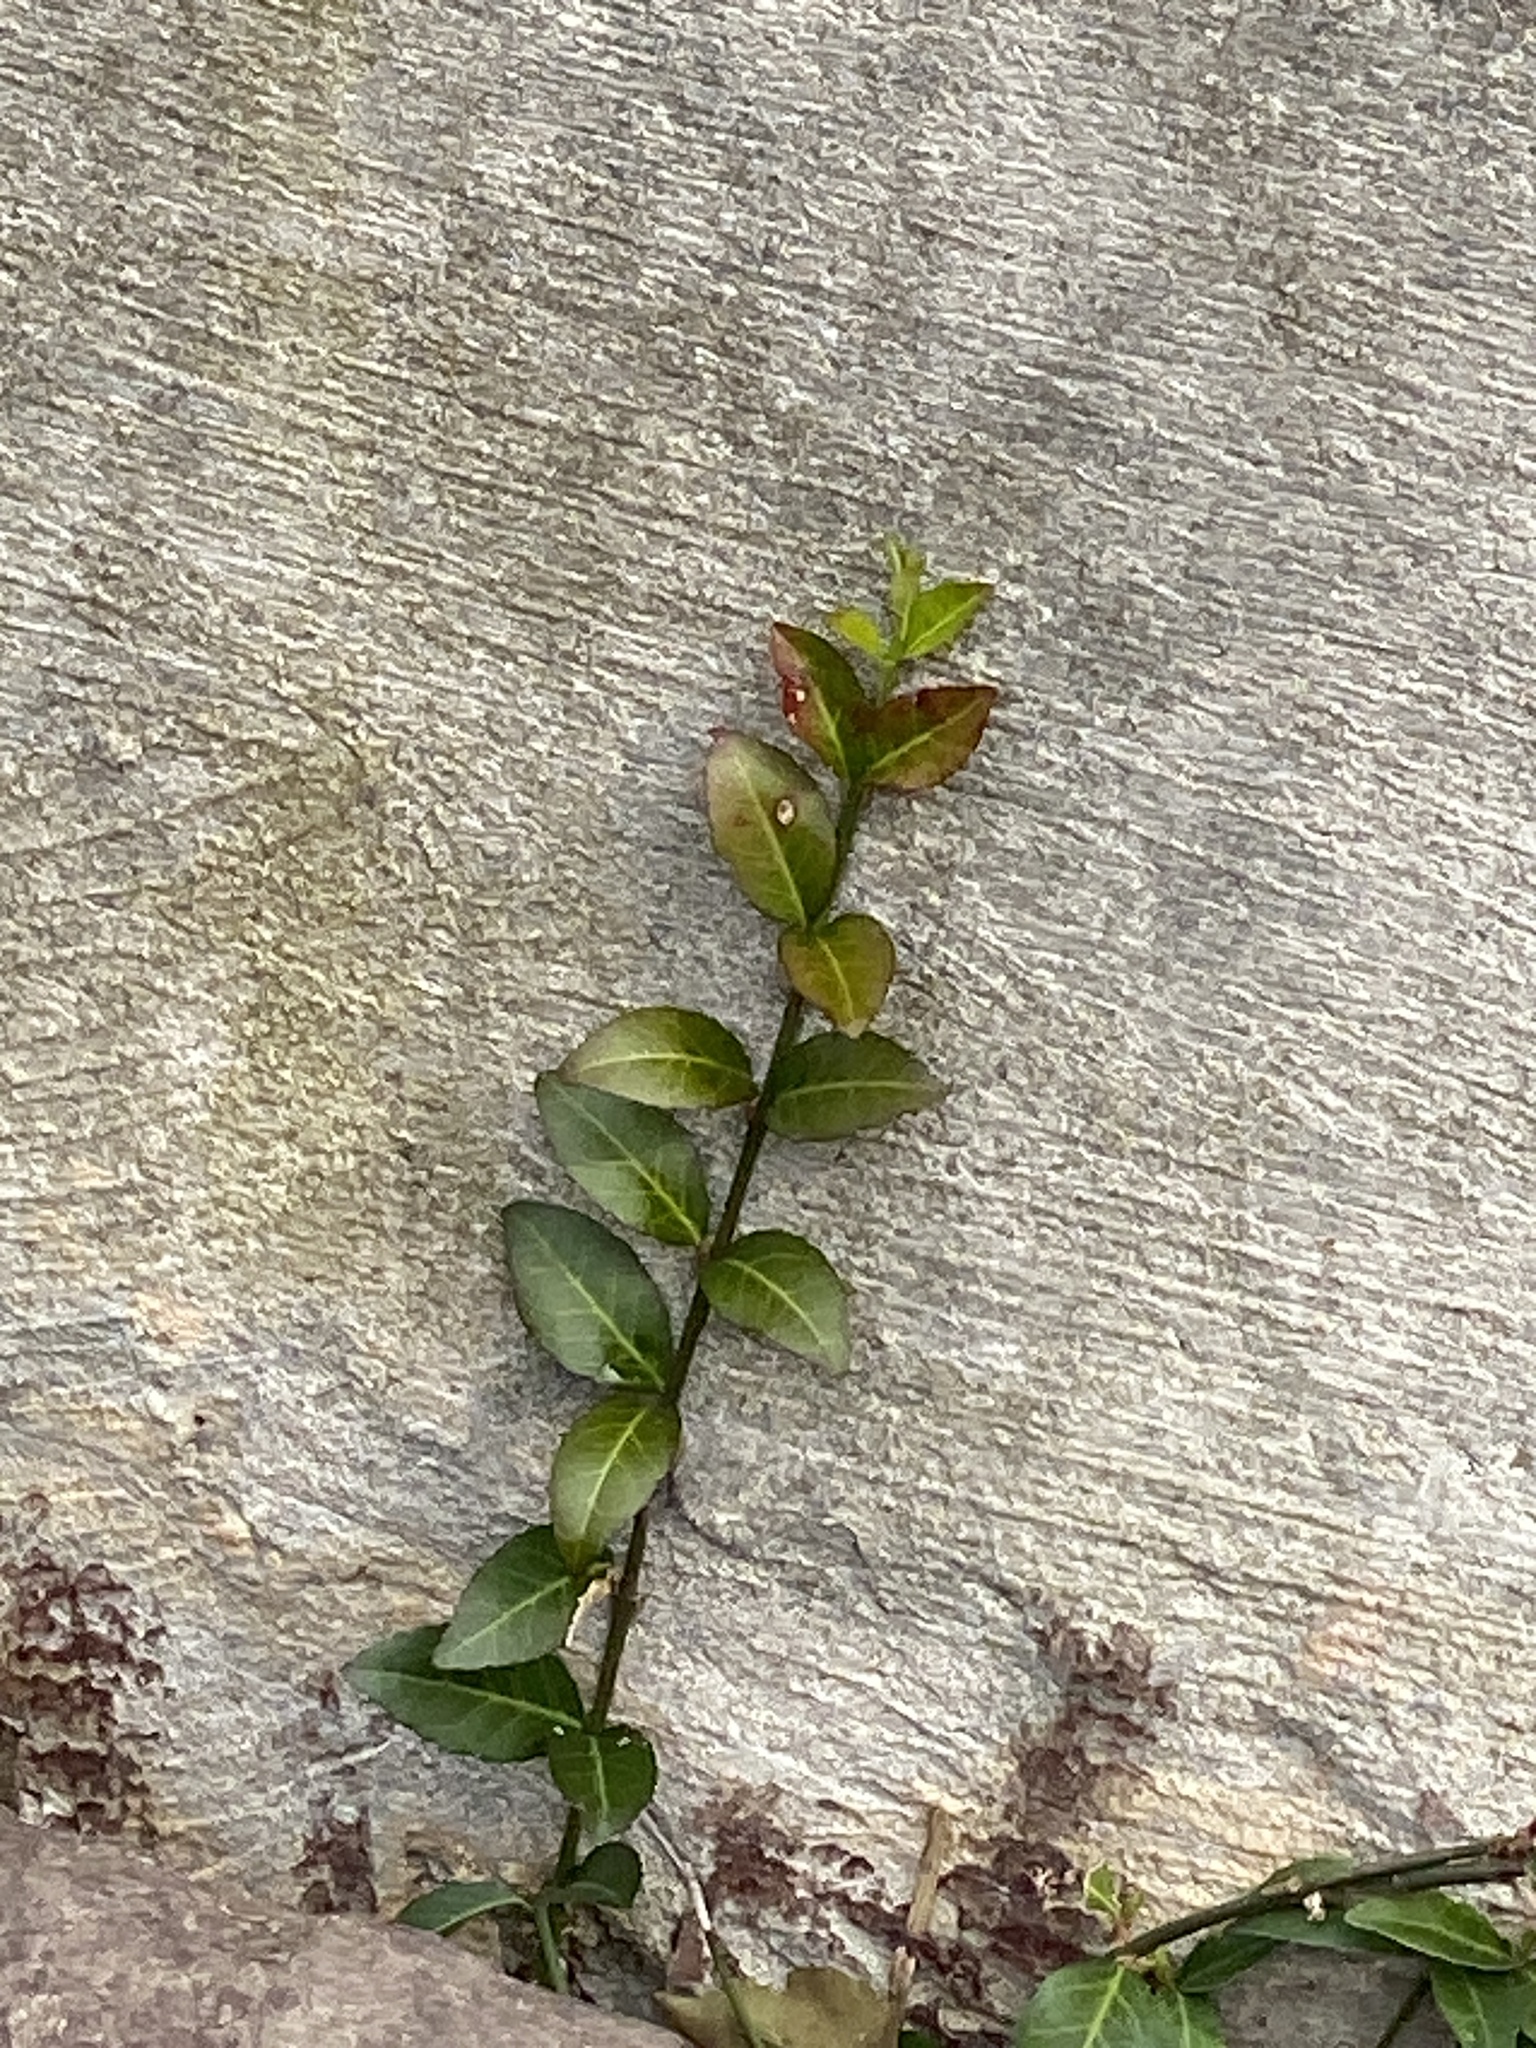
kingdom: Plantae
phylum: Tracheophyta
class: Magnoliopsida
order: Celastrales
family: Celastraceae
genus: Euonymus
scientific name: Euonymus fortunei
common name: Climbing euonymus
